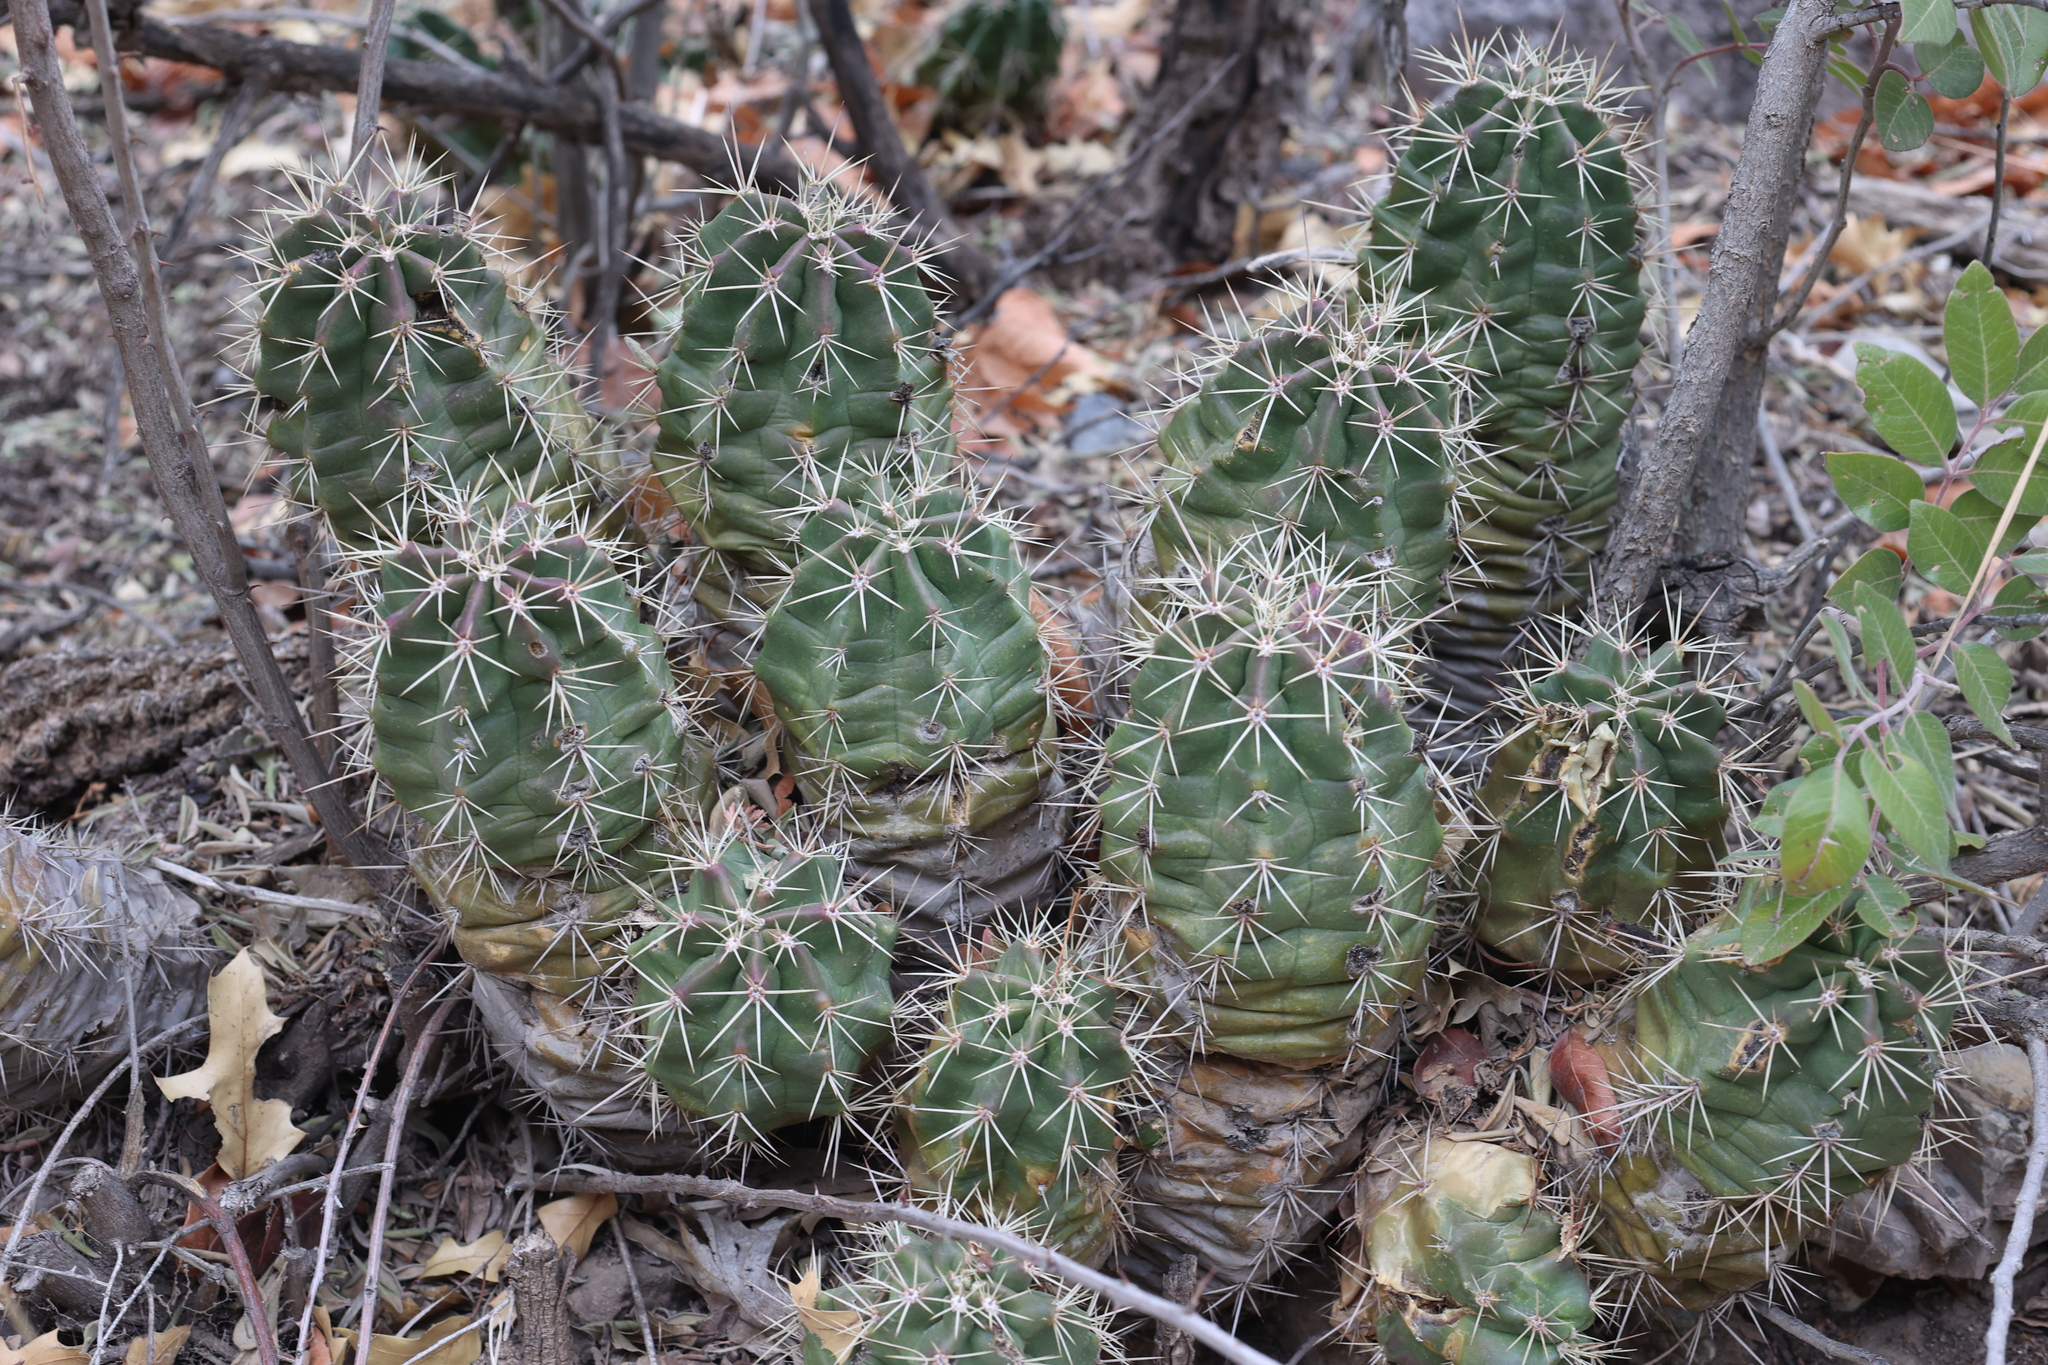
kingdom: Plantae
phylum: Tracheophyta
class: Magnoliopsida
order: Caryophyllales
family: Cactaceae
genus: Echinocereus
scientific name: Echinocereus coccineus
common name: Scarlet hedgehog cactus
